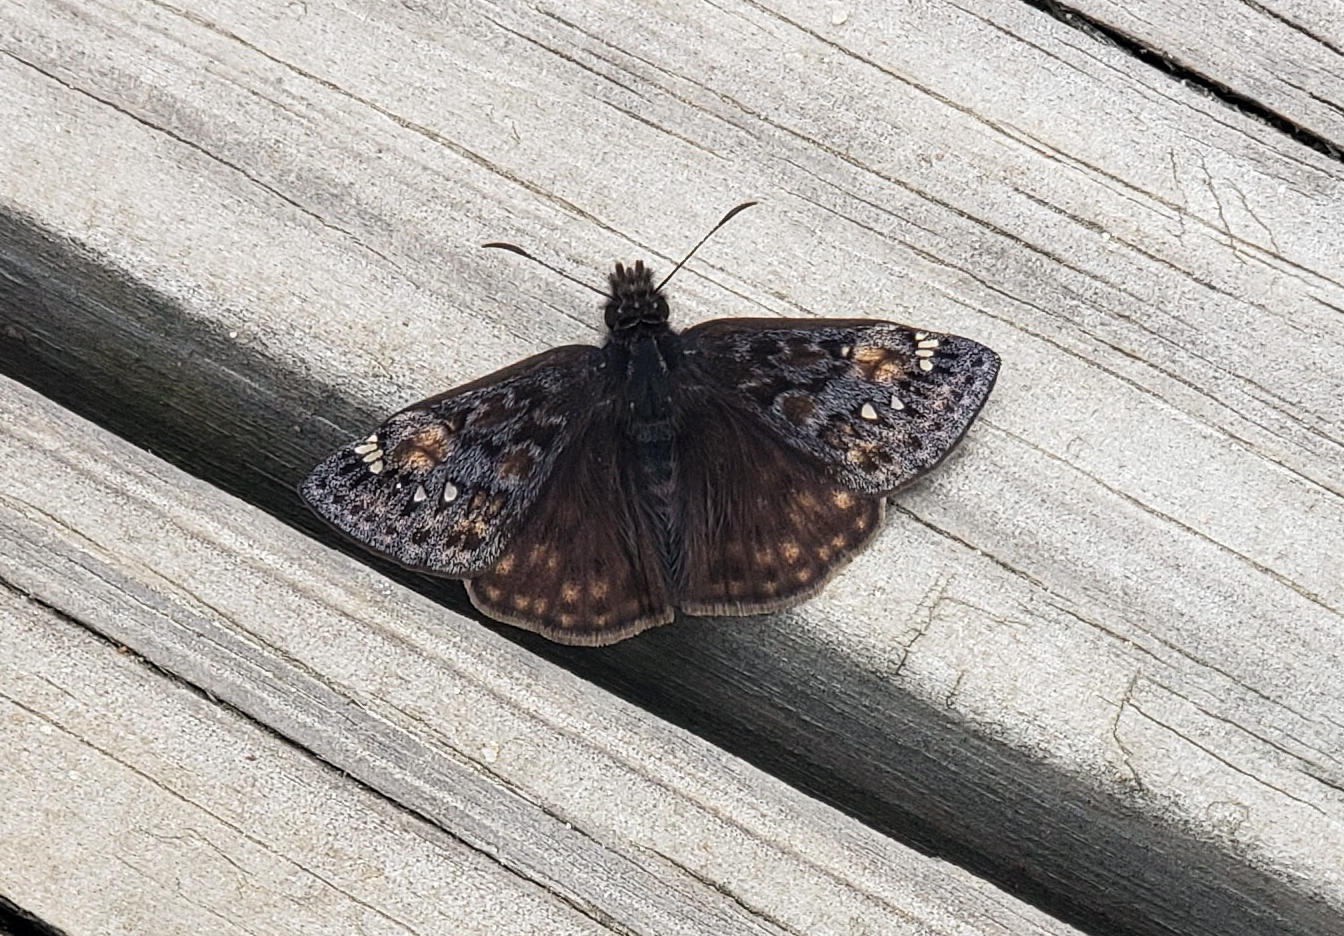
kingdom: Animalia
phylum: Arthropoda
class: Insecta
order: Lepidoptera
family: Hesperiidae
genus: Erynnis
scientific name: Erynnis juvenalis
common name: Juvenal's duskywing
